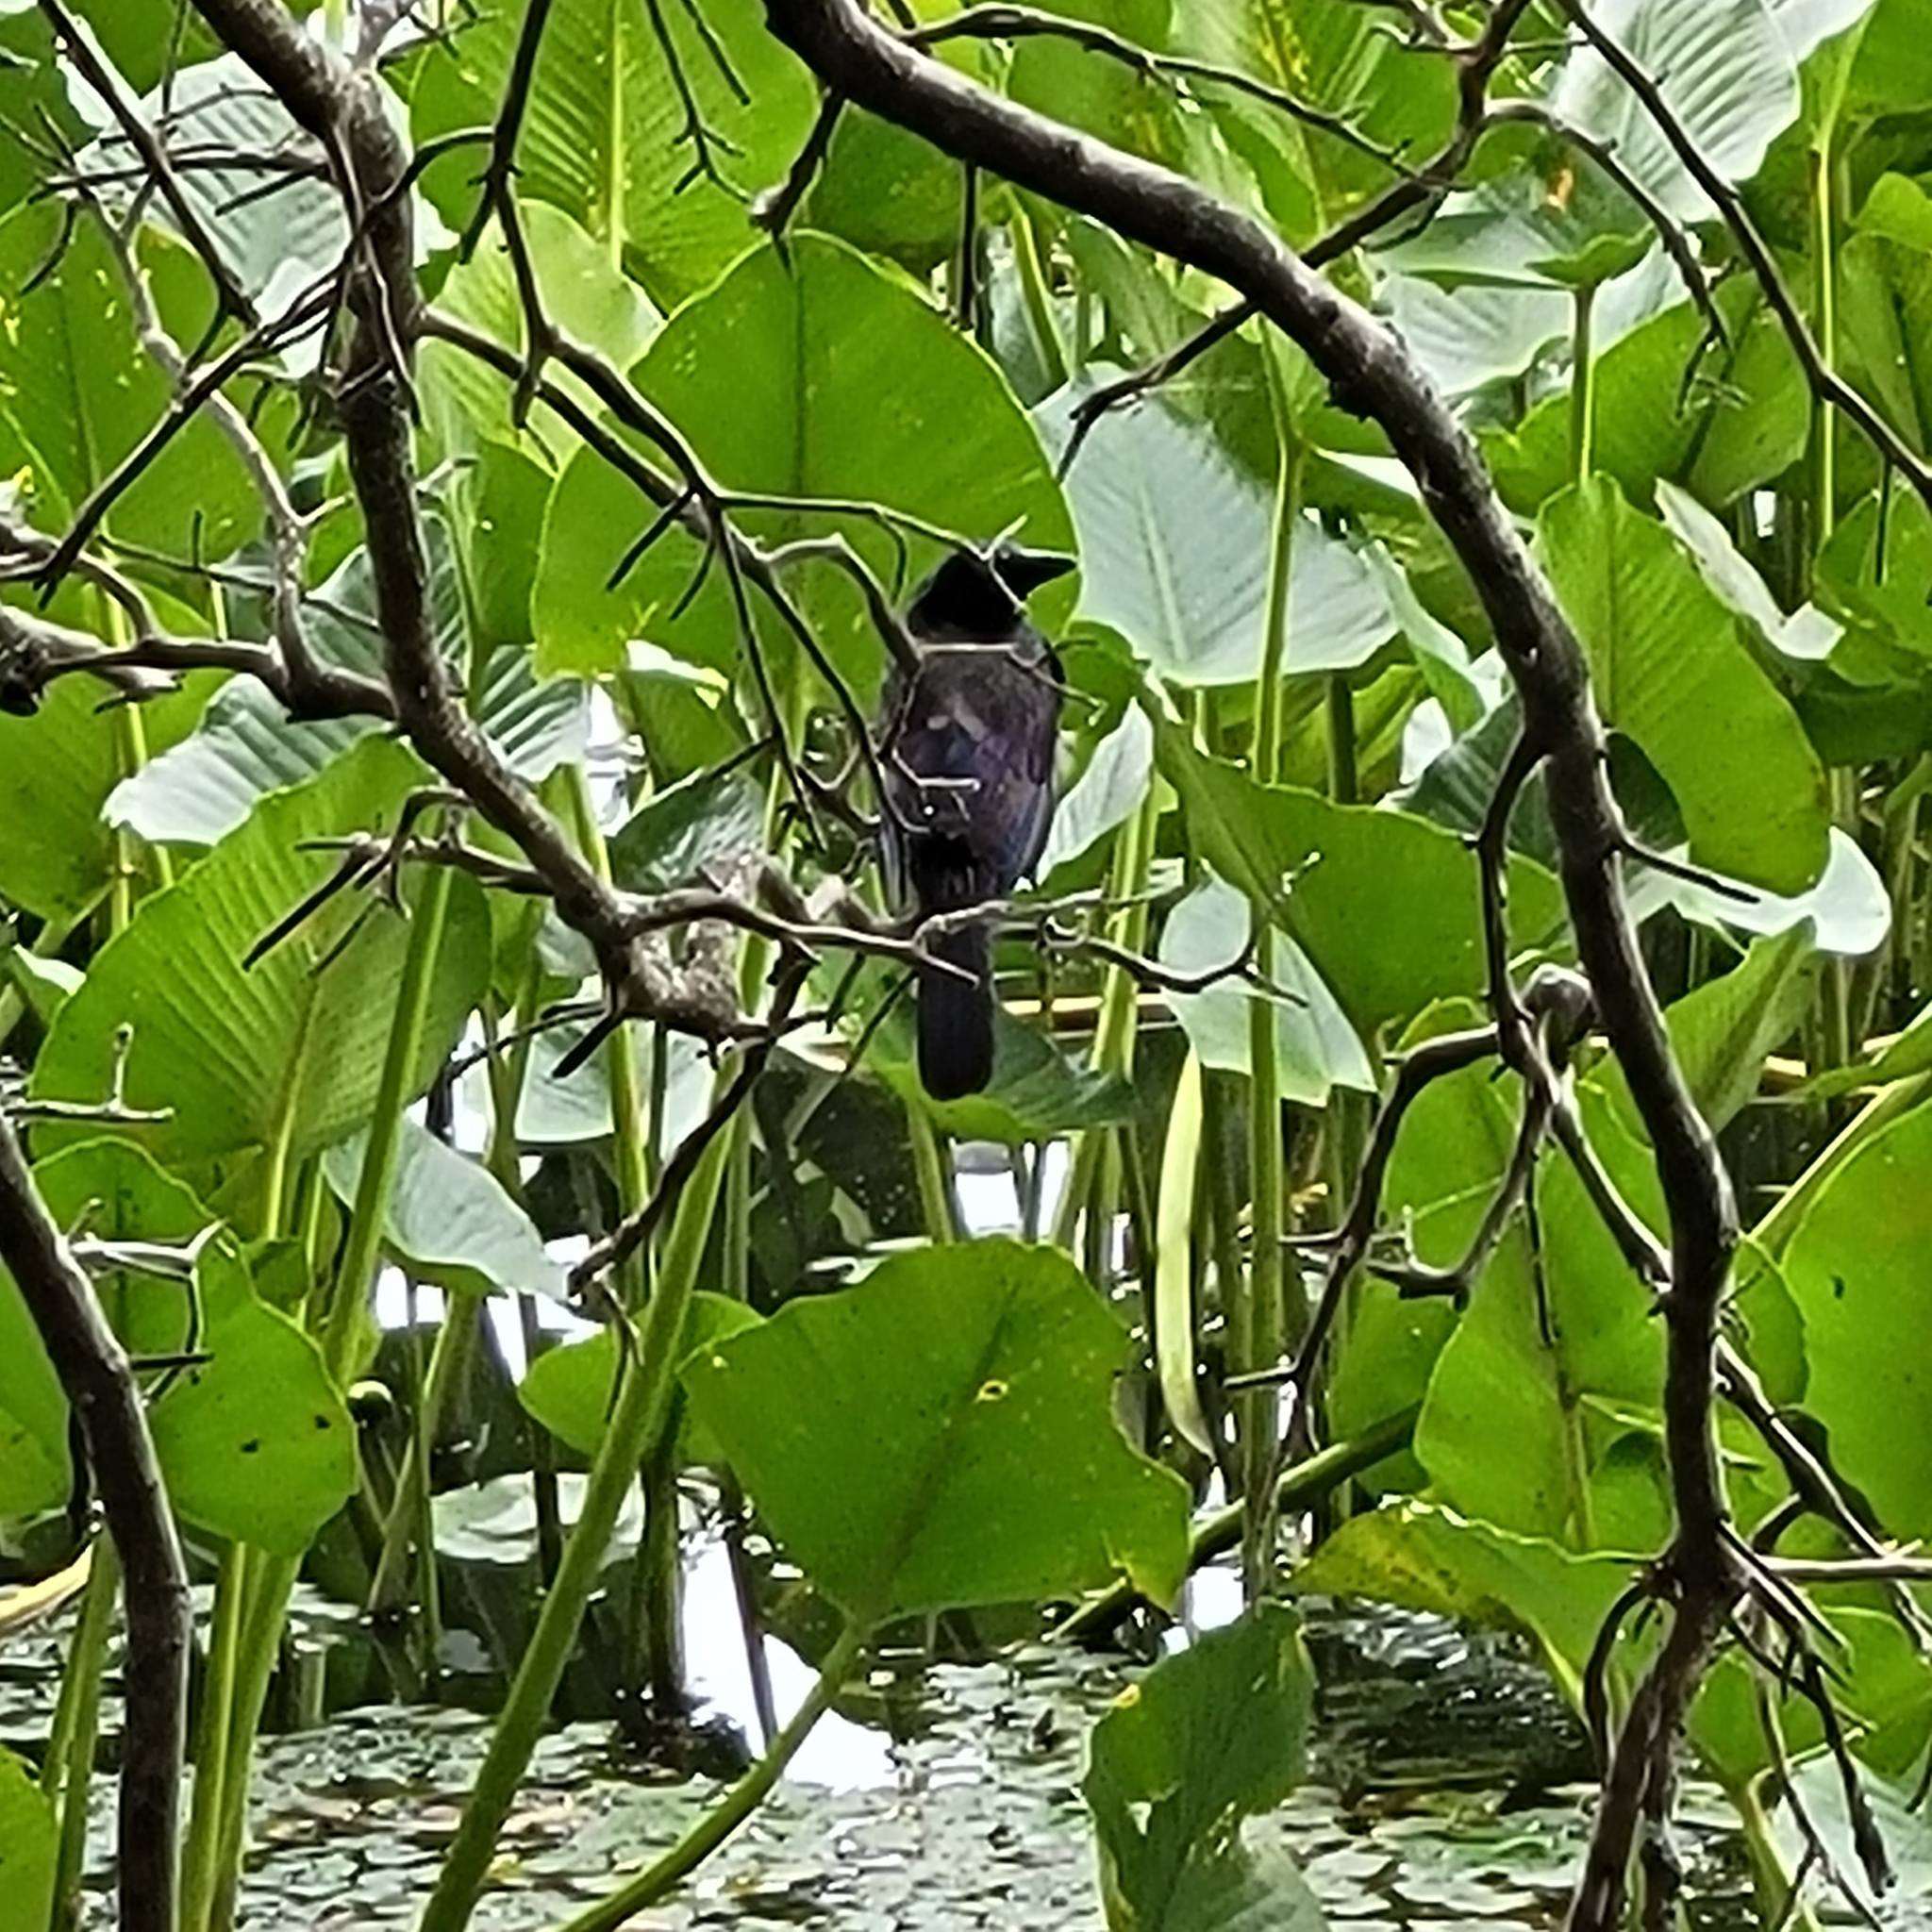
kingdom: Animalia
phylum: Chordata
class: Aves
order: Passeriformes
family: Icteridae
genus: Quiscalus
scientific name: Quiscalus quiscula
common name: Common grackle
